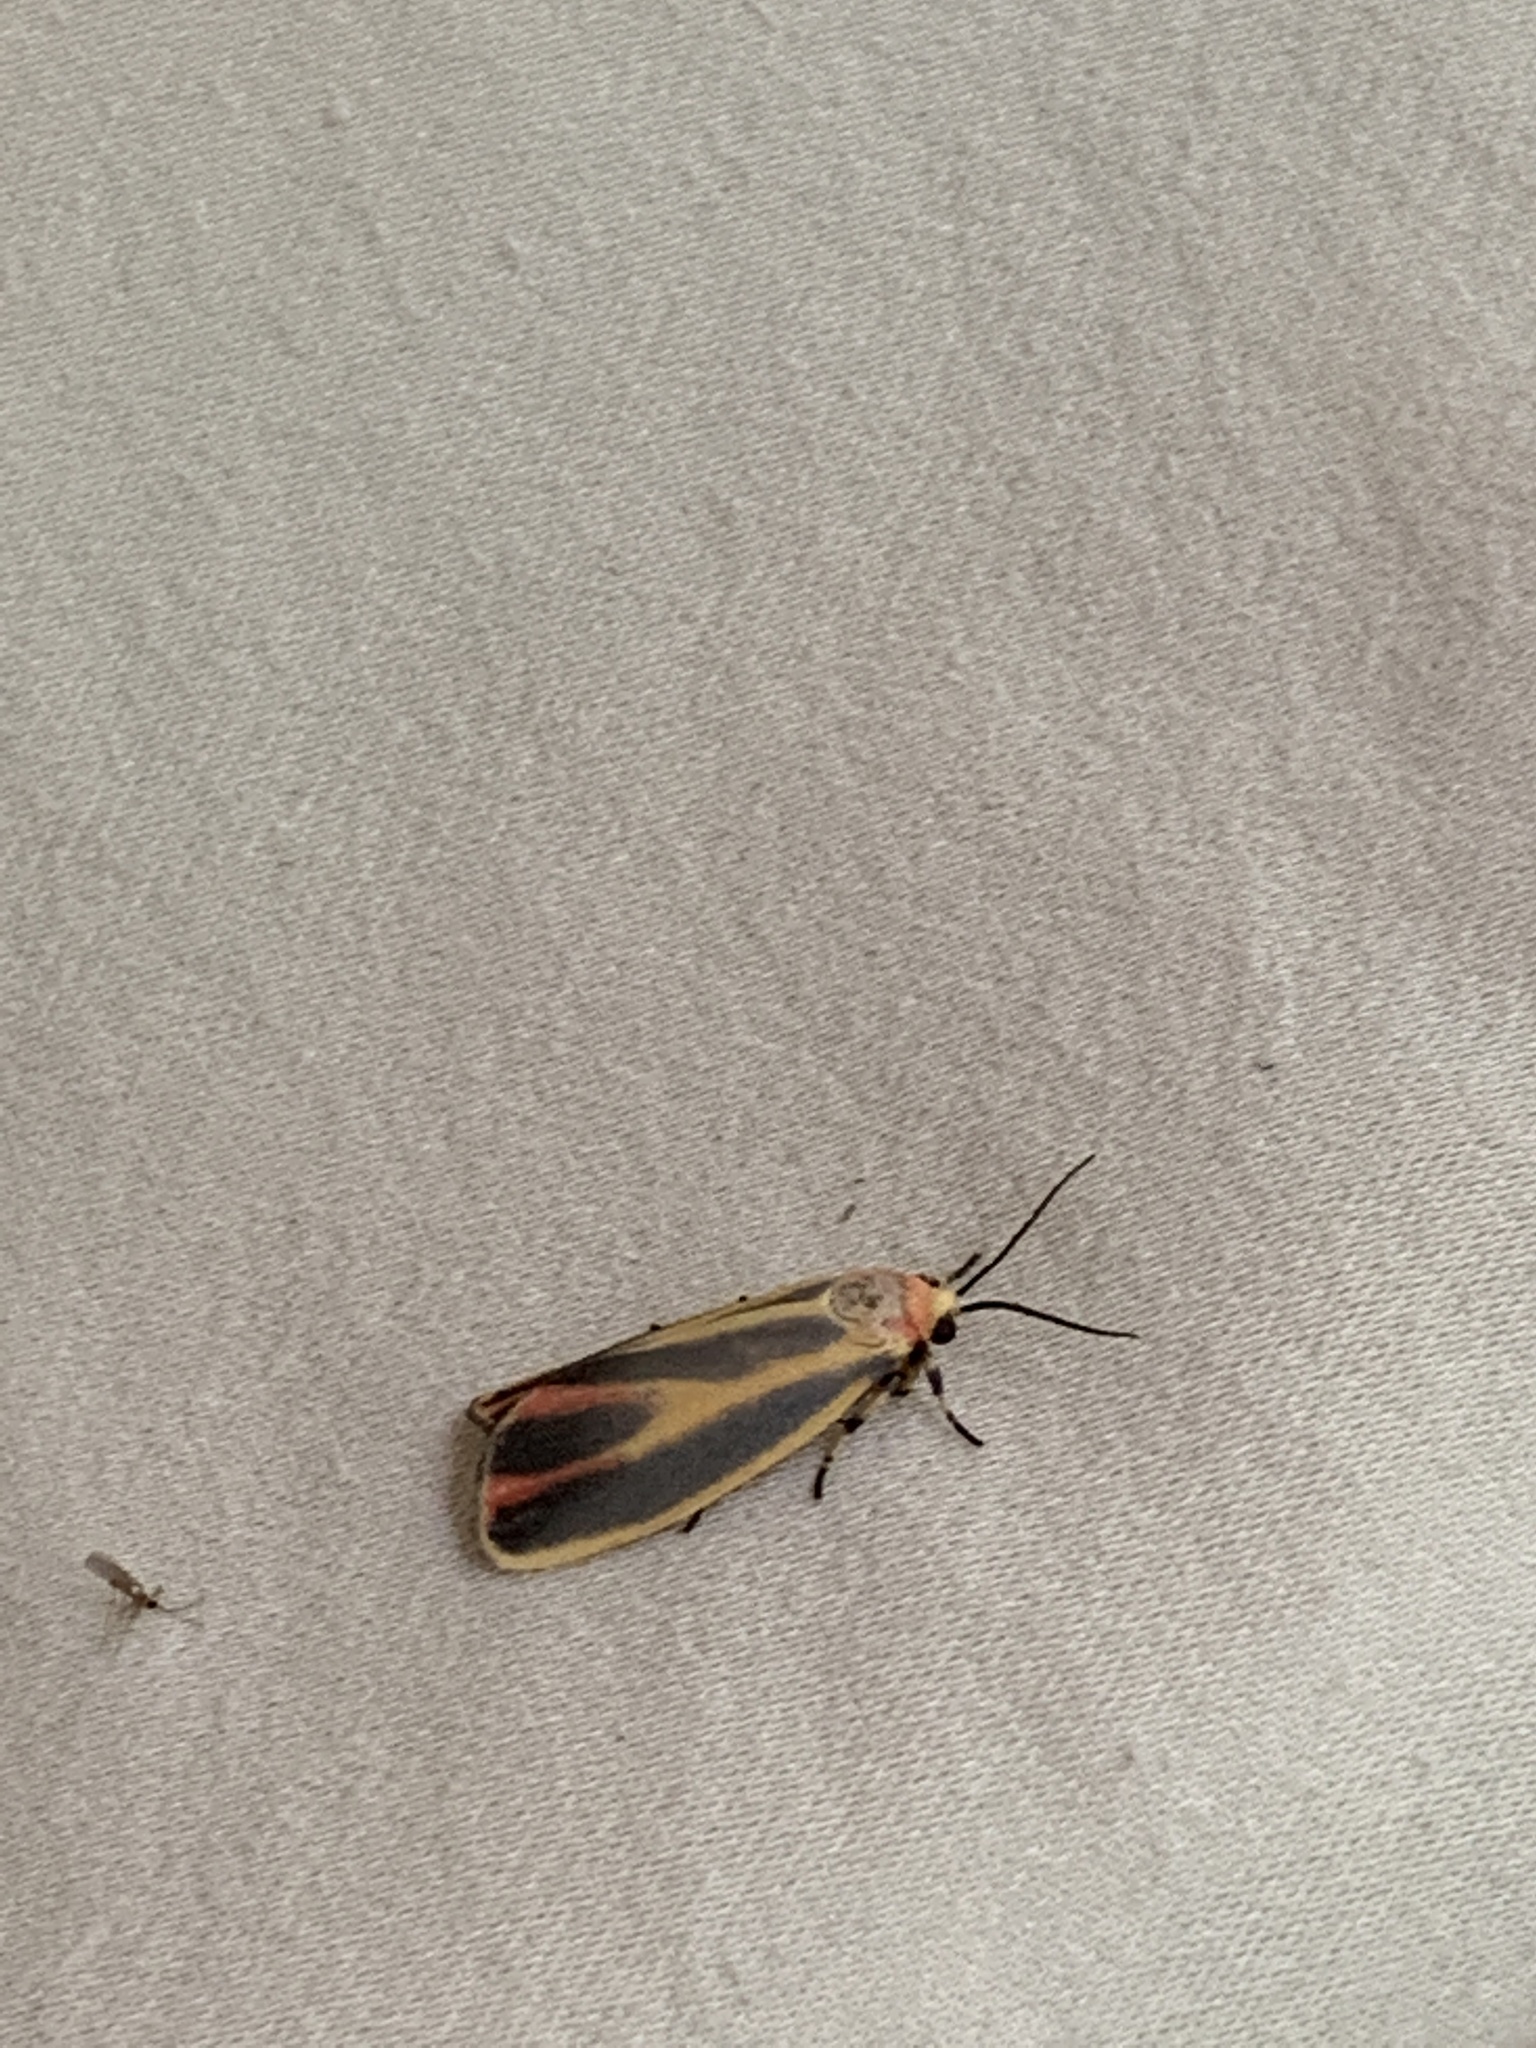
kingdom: Animalia
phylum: Arthropoda
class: Insecta
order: Lepidoptera
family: Erebidae
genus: Hypoprepia
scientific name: Hypoprepia fucosa
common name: Painted lichen moth
